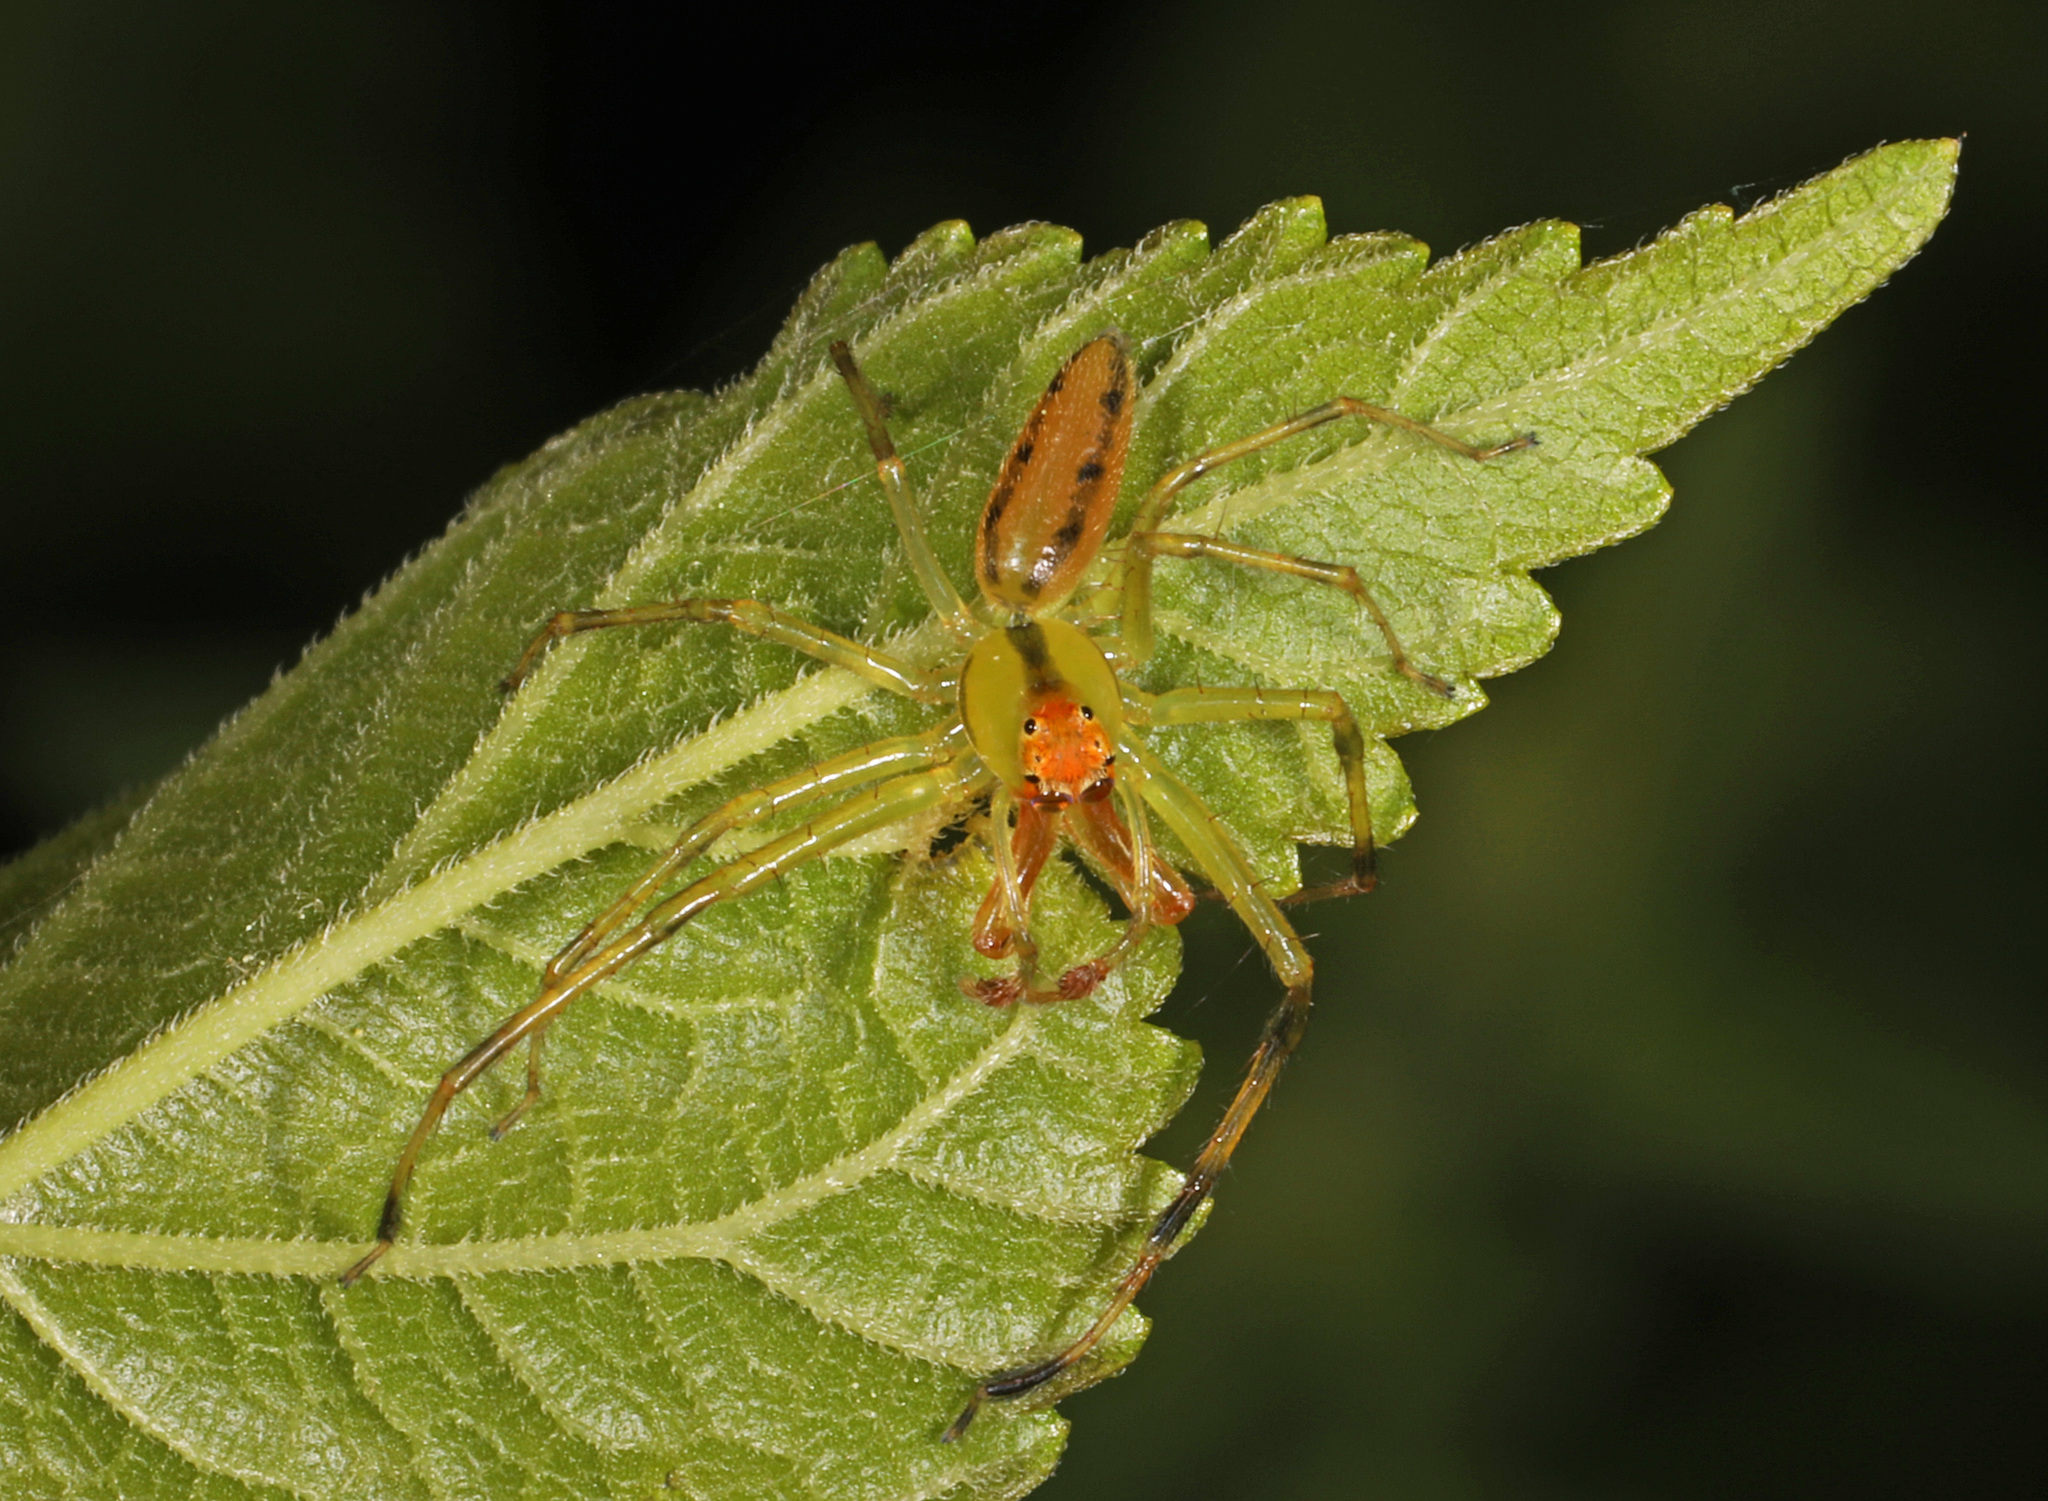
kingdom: Animalia
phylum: Arthropoda
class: Arachnida
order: Araneae
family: Salticidae
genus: Lyssomanes
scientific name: Lyssomanes viridis
